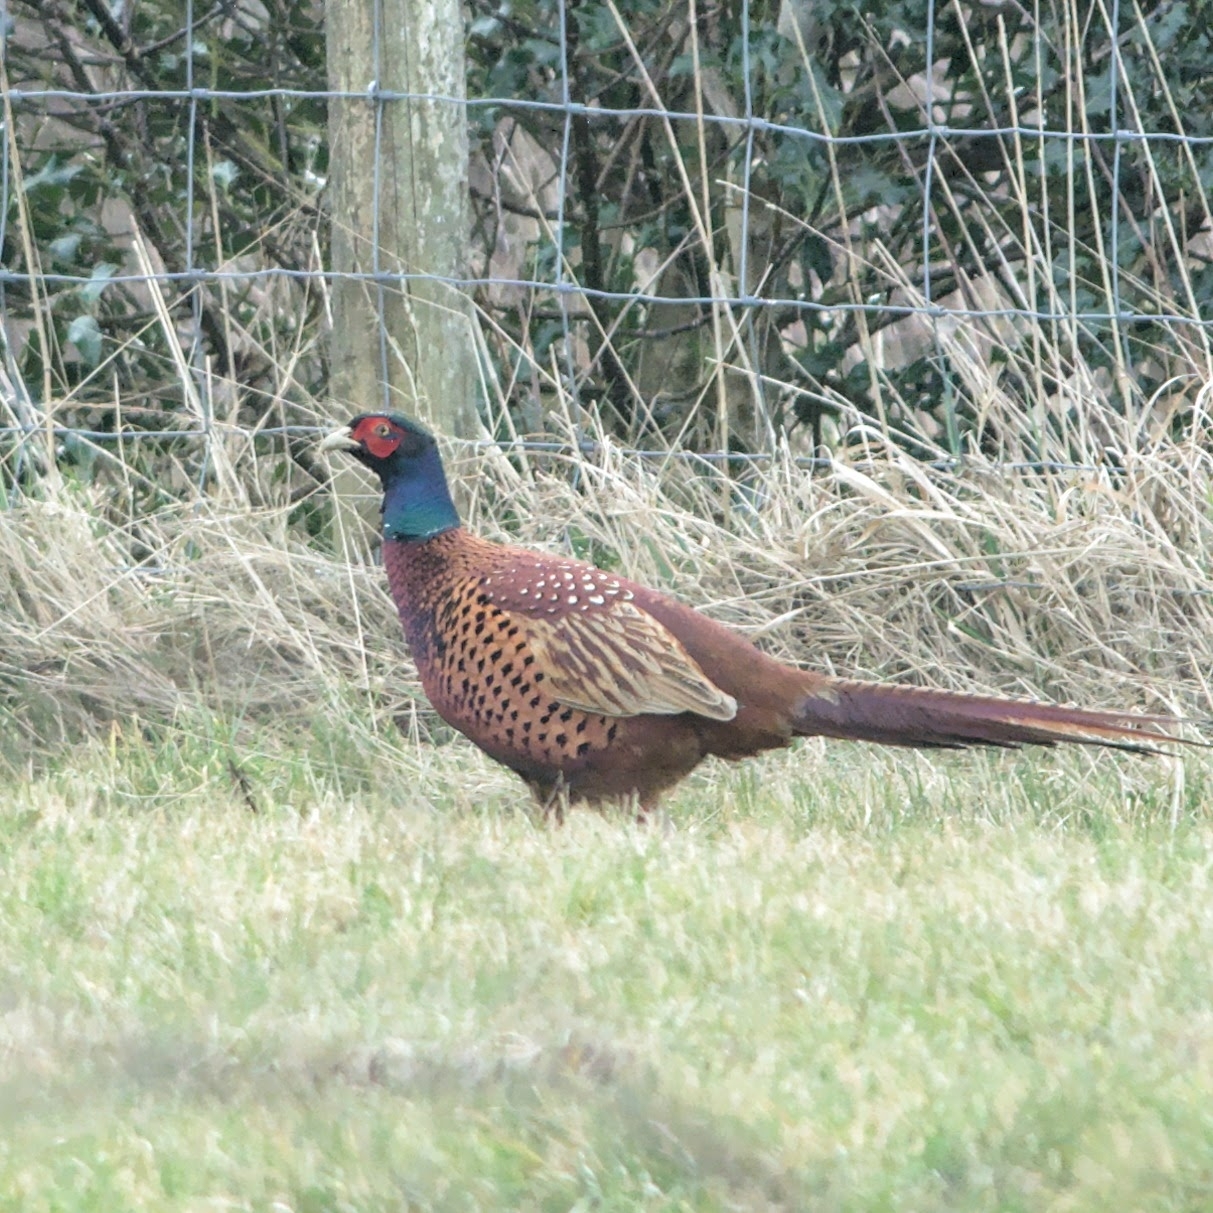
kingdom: Animalia
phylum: Chordata
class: Aves
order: Galliformes
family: Phasianidae
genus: Phasianus
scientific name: Phasianus colchicus
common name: Common pheasant
